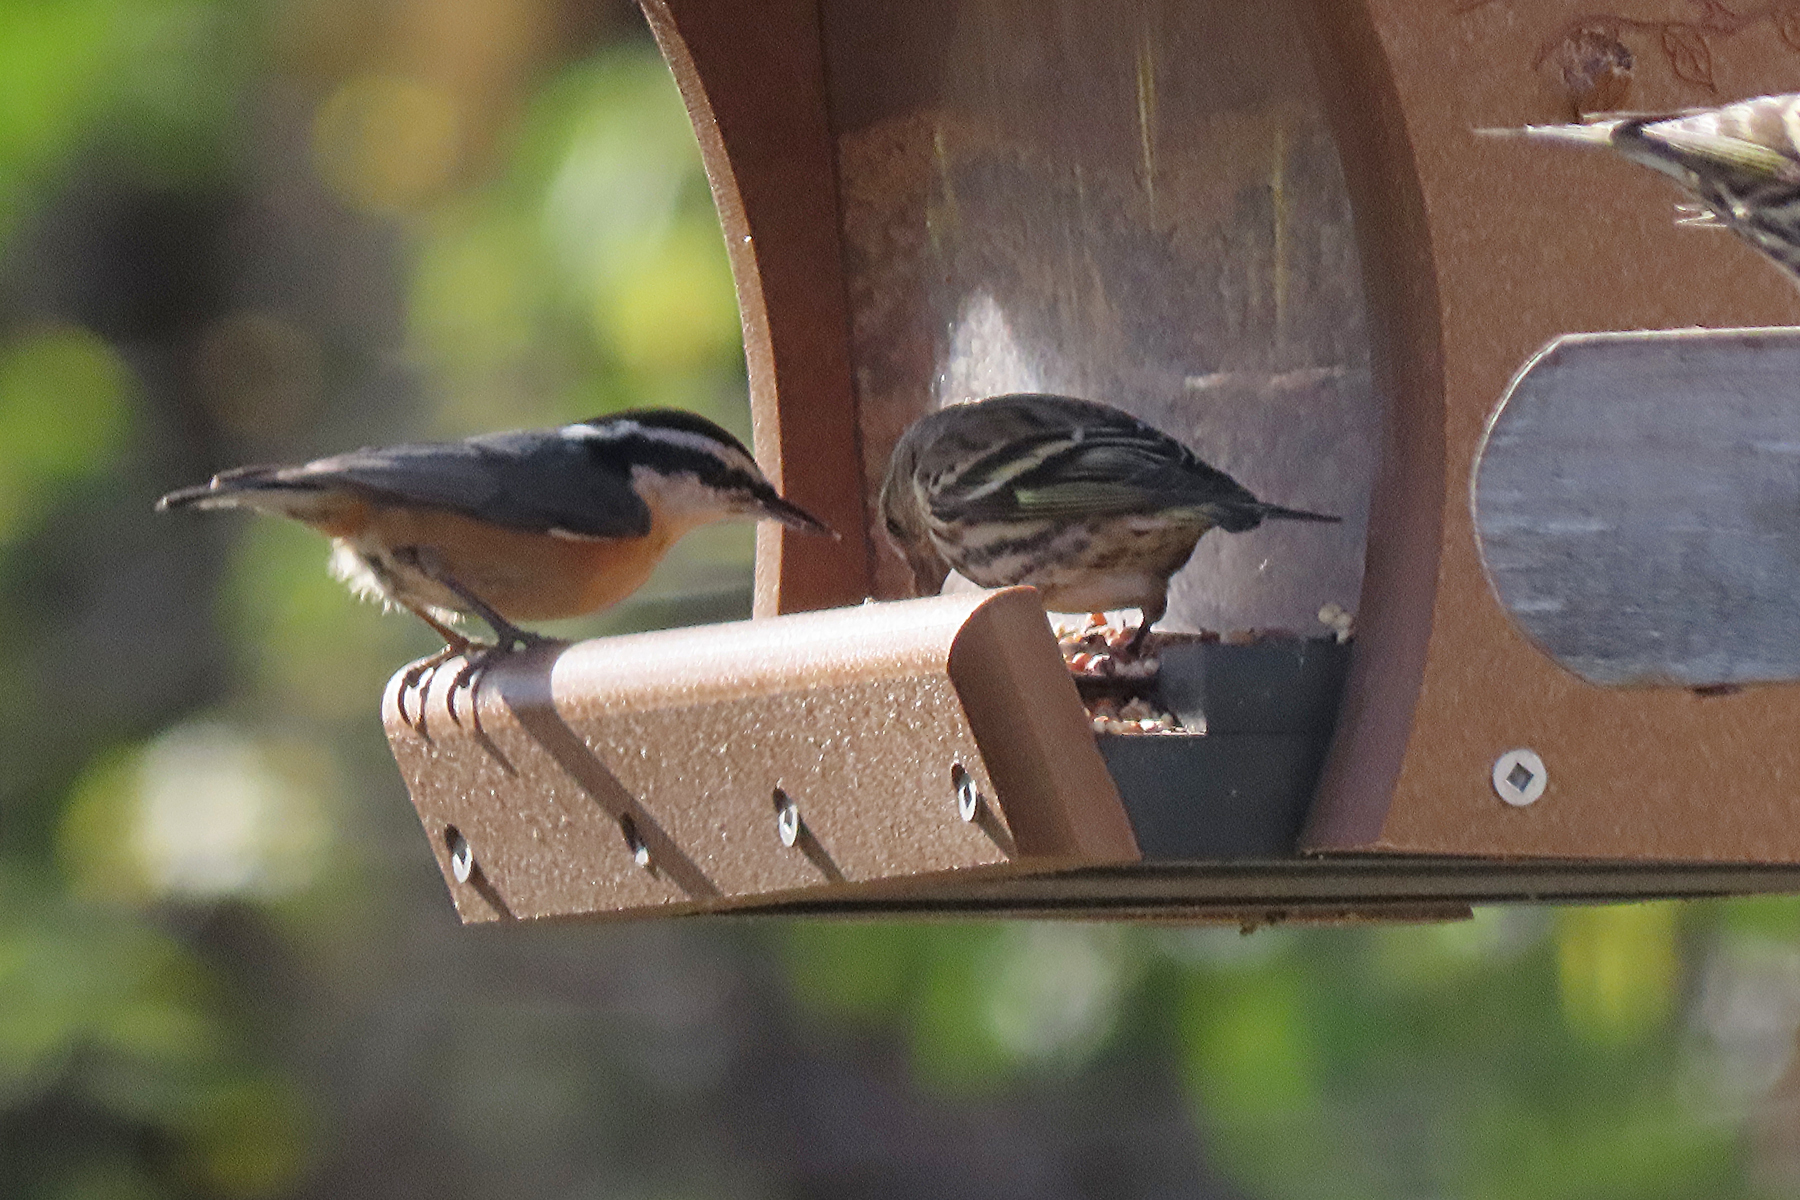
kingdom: Animalia
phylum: Chordata
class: Aves
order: Passeriformes
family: Sittidae
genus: Sitta
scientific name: Sitta canadensis
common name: Red-breasted nuthatch
